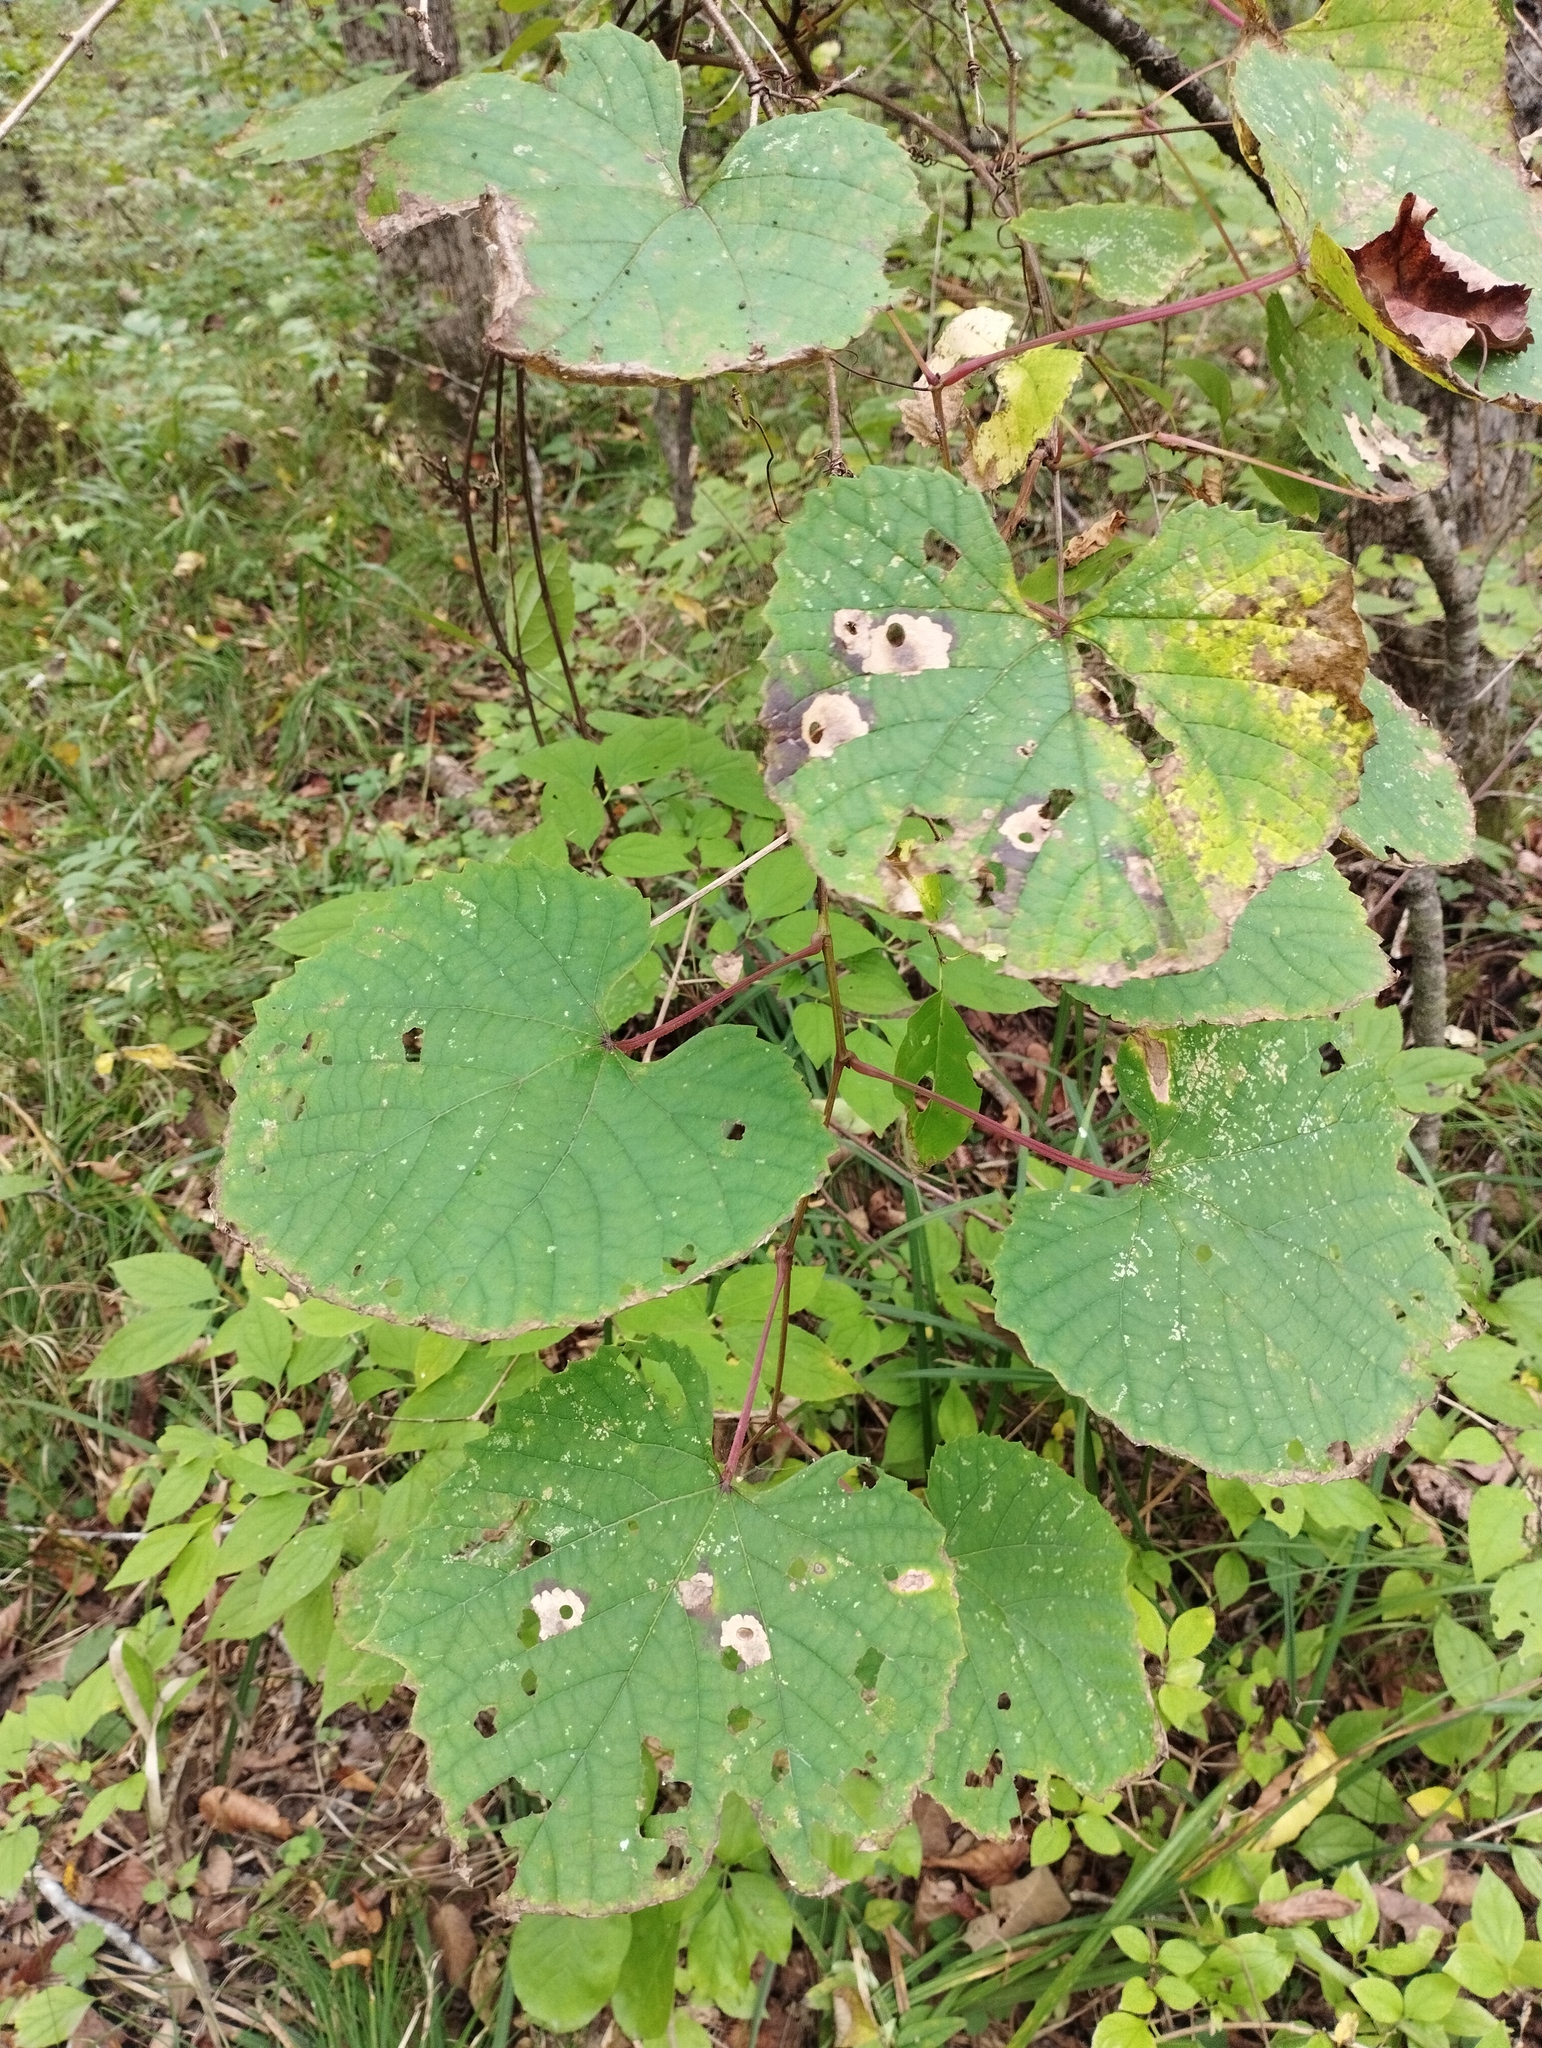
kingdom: Plantae
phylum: Tracheophyta
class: Magnoliopsida
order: Vitales
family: Vitaceae
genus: Vitis
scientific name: Vitis amurensis
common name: Amur grape
